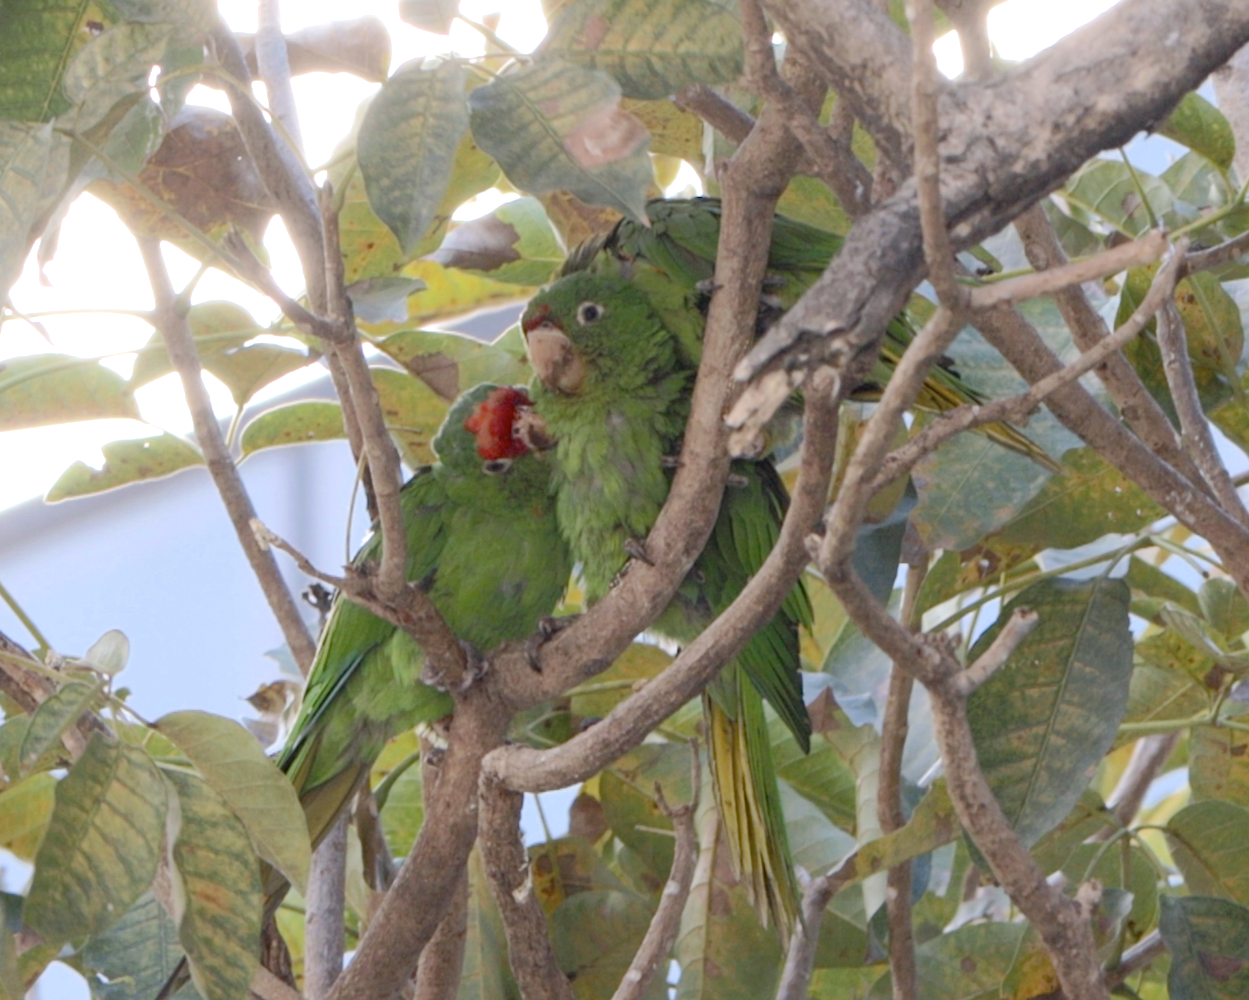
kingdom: Animalia
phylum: Chordata
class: Aves
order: Psittaciformes
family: Psittacidae
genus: Aratinga
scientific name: Aratinga finschi
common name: Crimson-fronted parakeet
